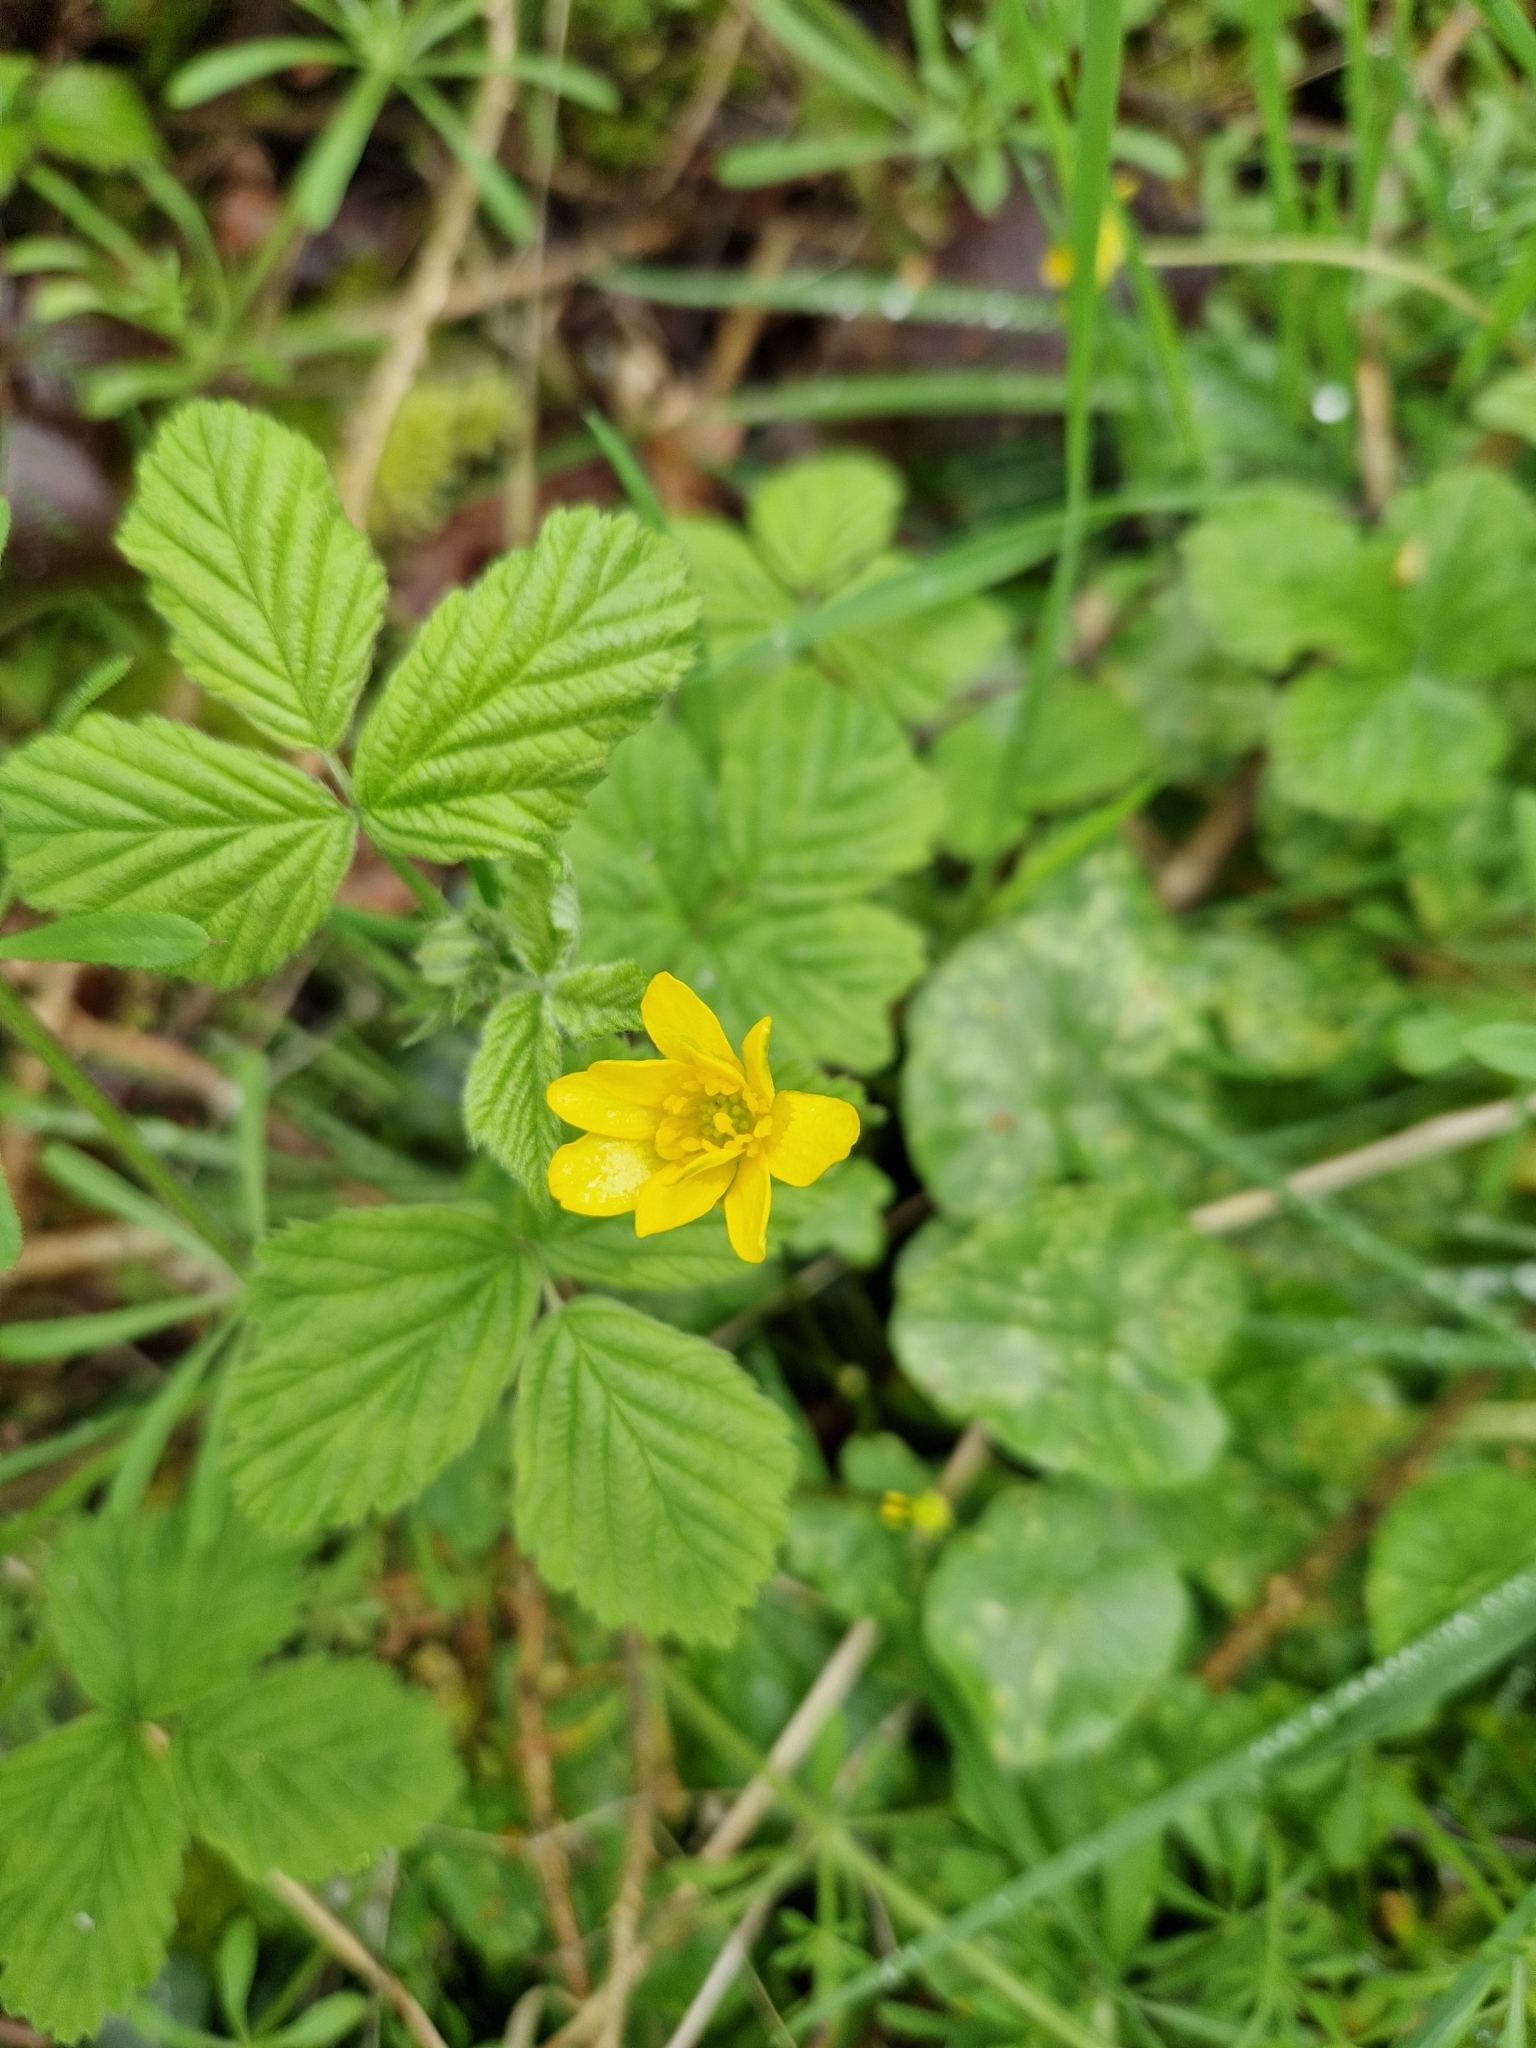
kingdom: Plantae
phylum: Tracheophyta
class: Magnoliopsida
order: Ranunculales
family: Ranunculaceae
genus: Ficaria
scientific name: Ficaria verna
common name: Lesser celandine
